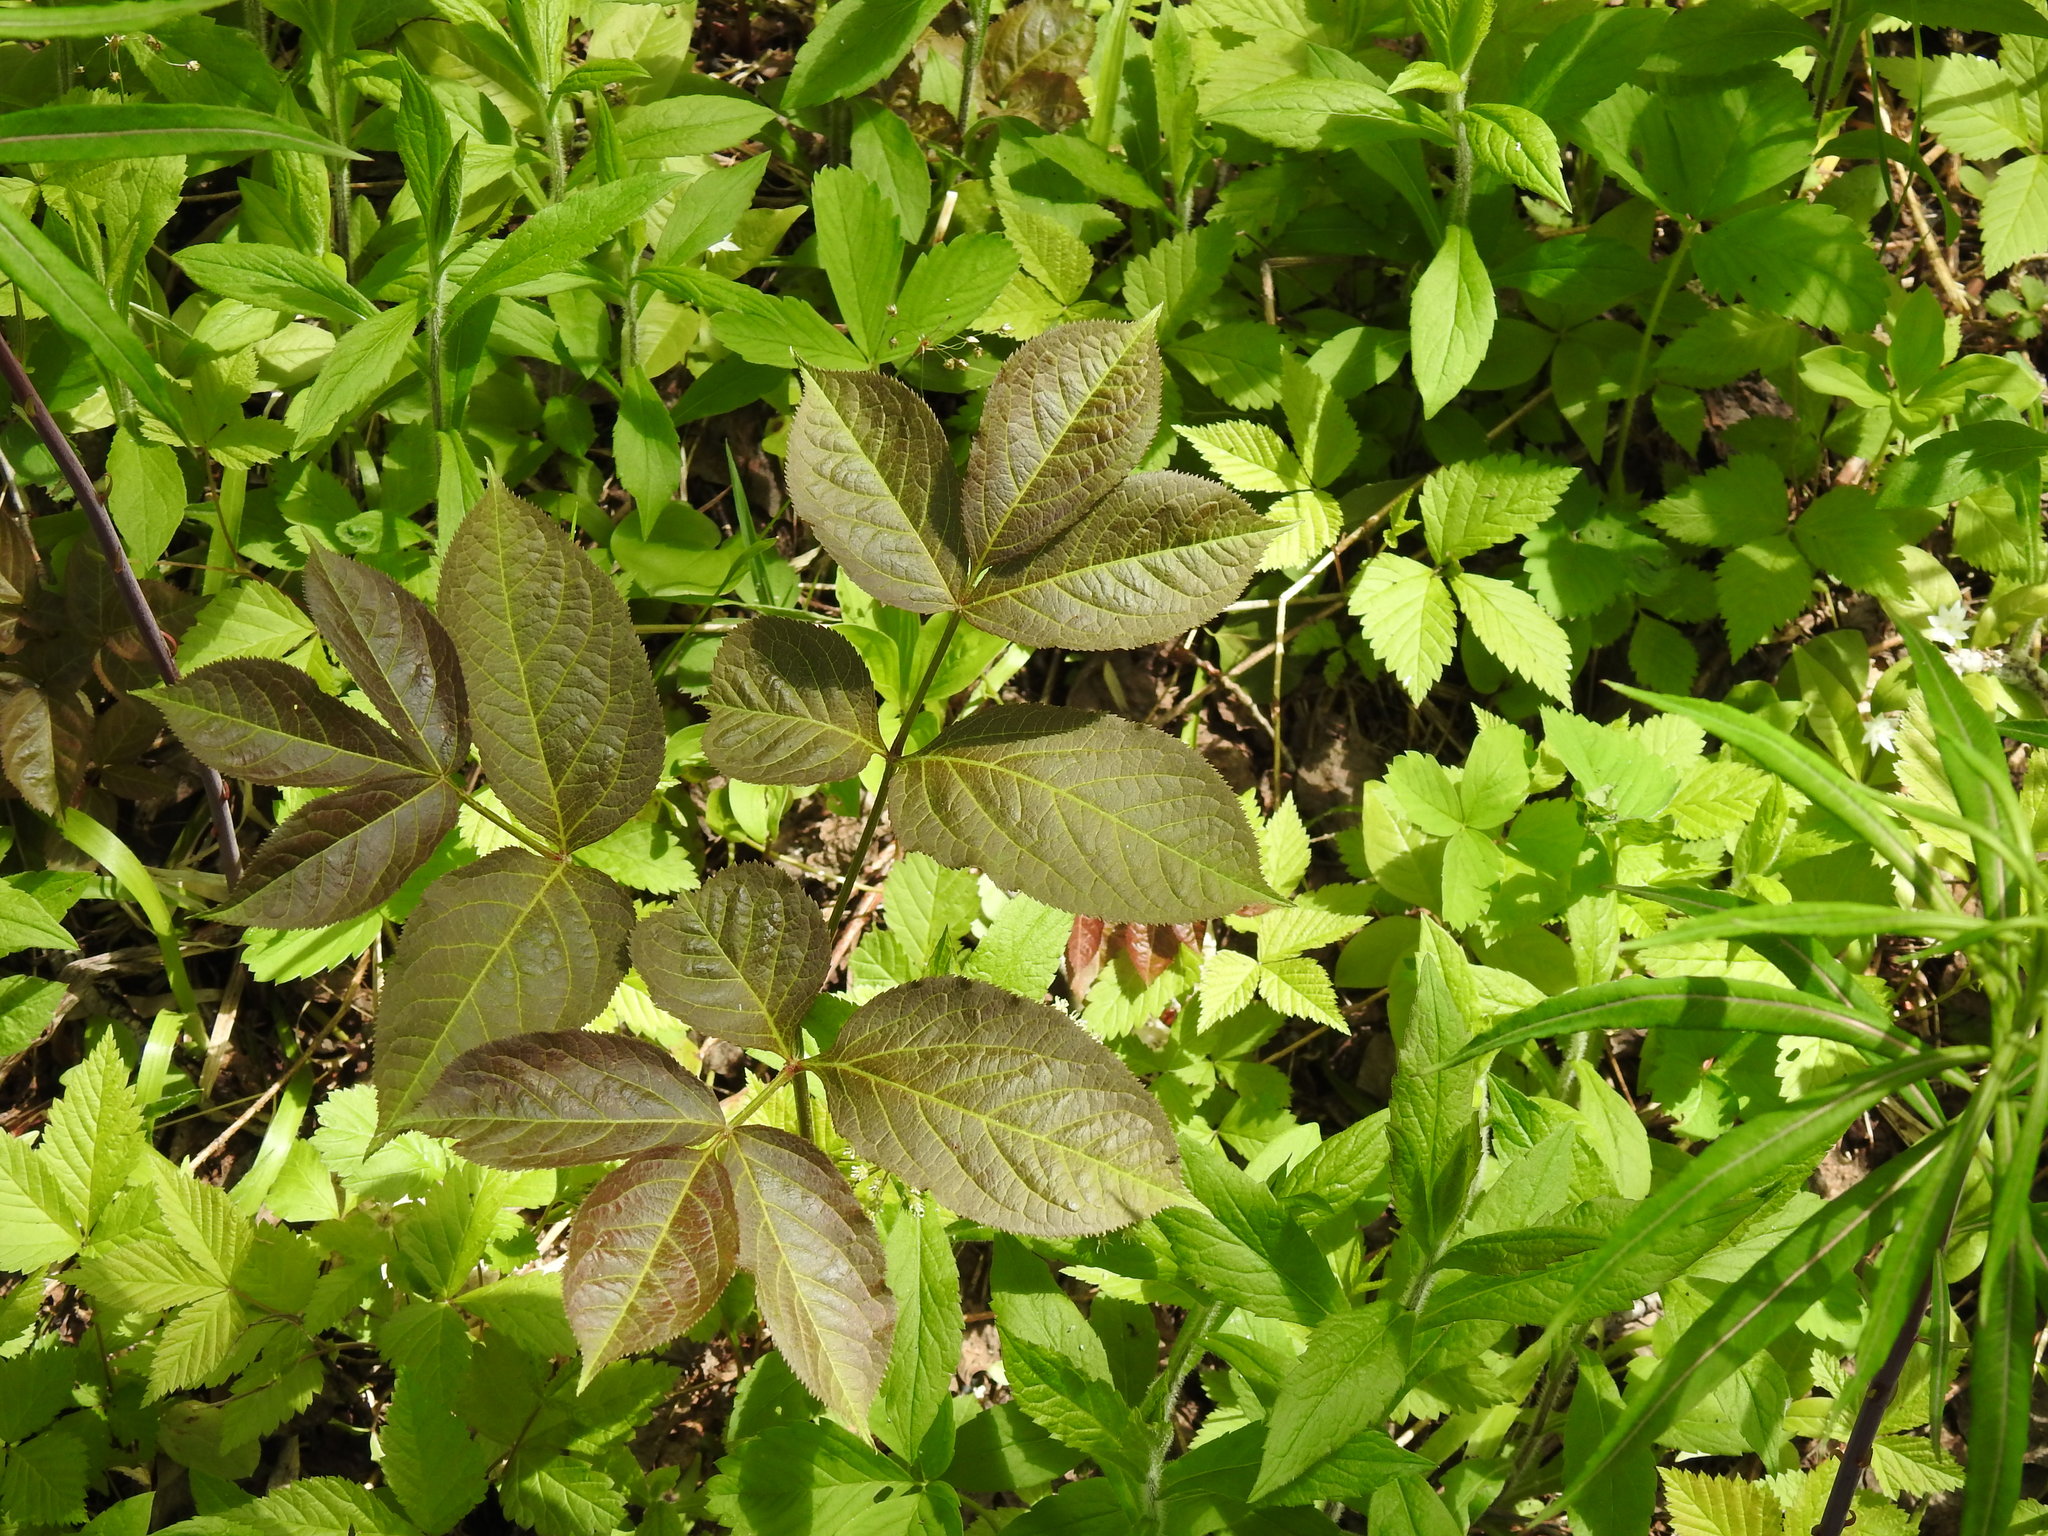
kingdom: Plantae
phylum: Tracheophyta
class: Magnoliopsida
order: Apiales
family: Araliaceae
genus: Aralia
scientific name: Aralia nudicaulis
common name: Wild sarsaparilla
